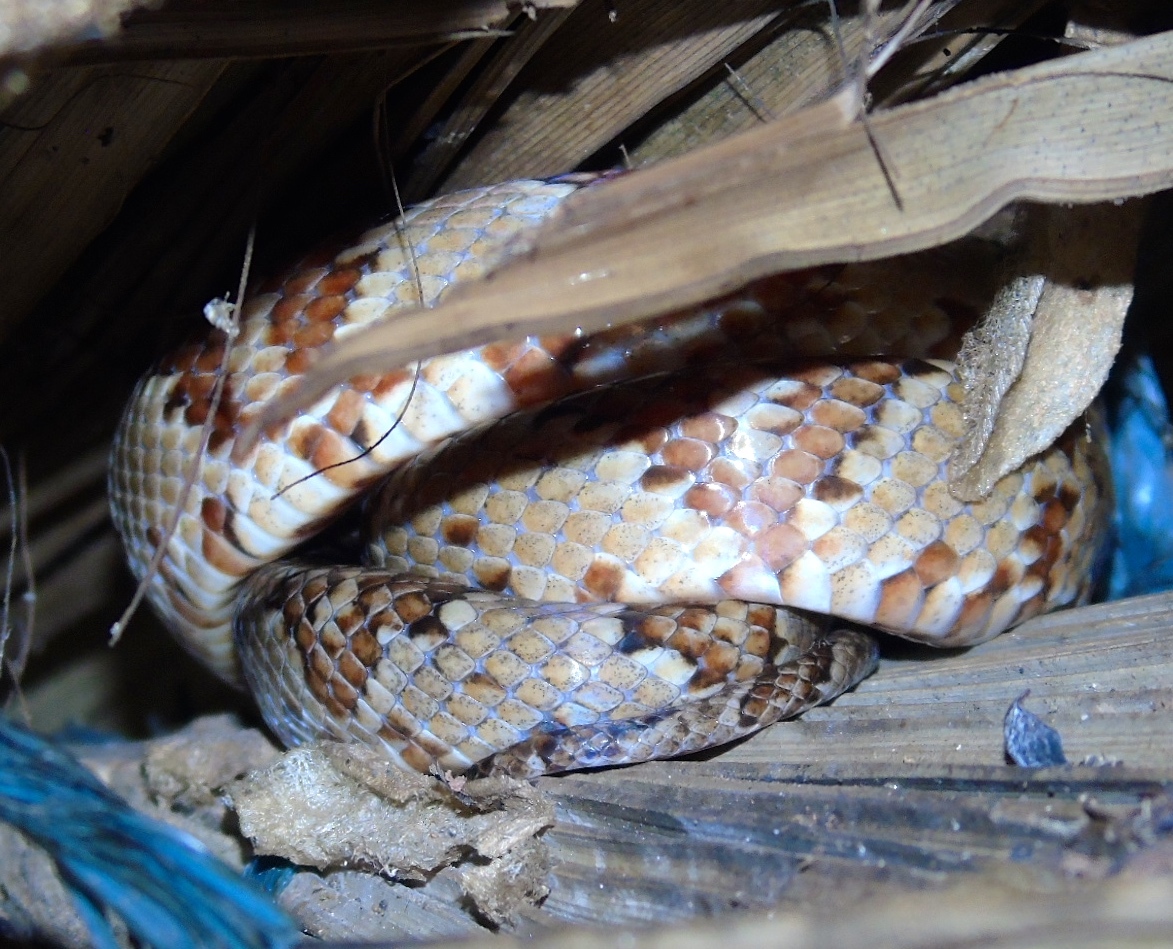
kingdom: Animalia
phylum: Chordata
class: Squamata
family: Colubridae
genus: Trimorphodon
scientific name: Trimorphodon paucimaculatus
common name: Sinaloan lyresnake
